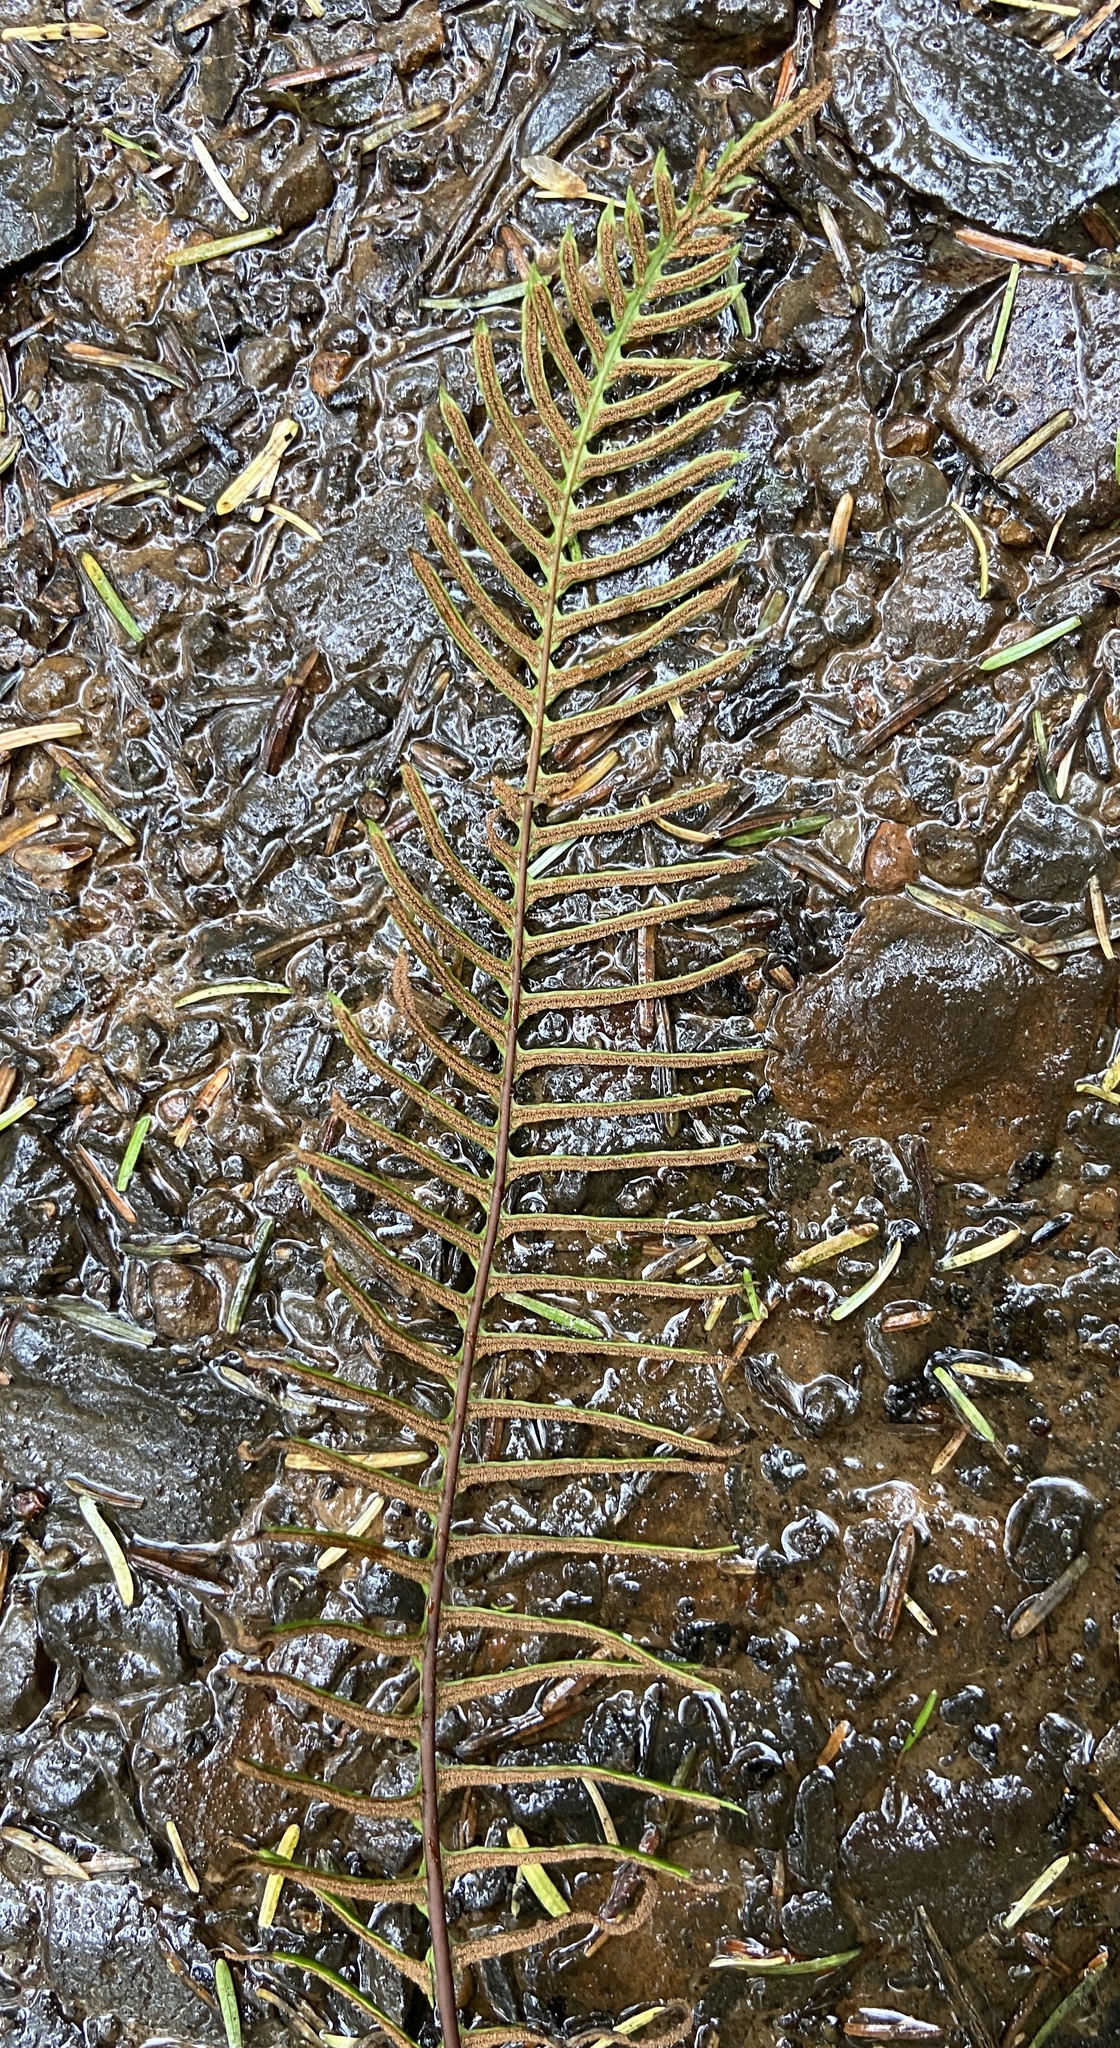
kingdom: Plantae
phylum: Tracheophyta
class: Polypodiopsida
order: Polypodiales
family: Blechnaceae
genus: Struthiopteris
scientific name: Struthiopteris spicant
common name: Deer fern
